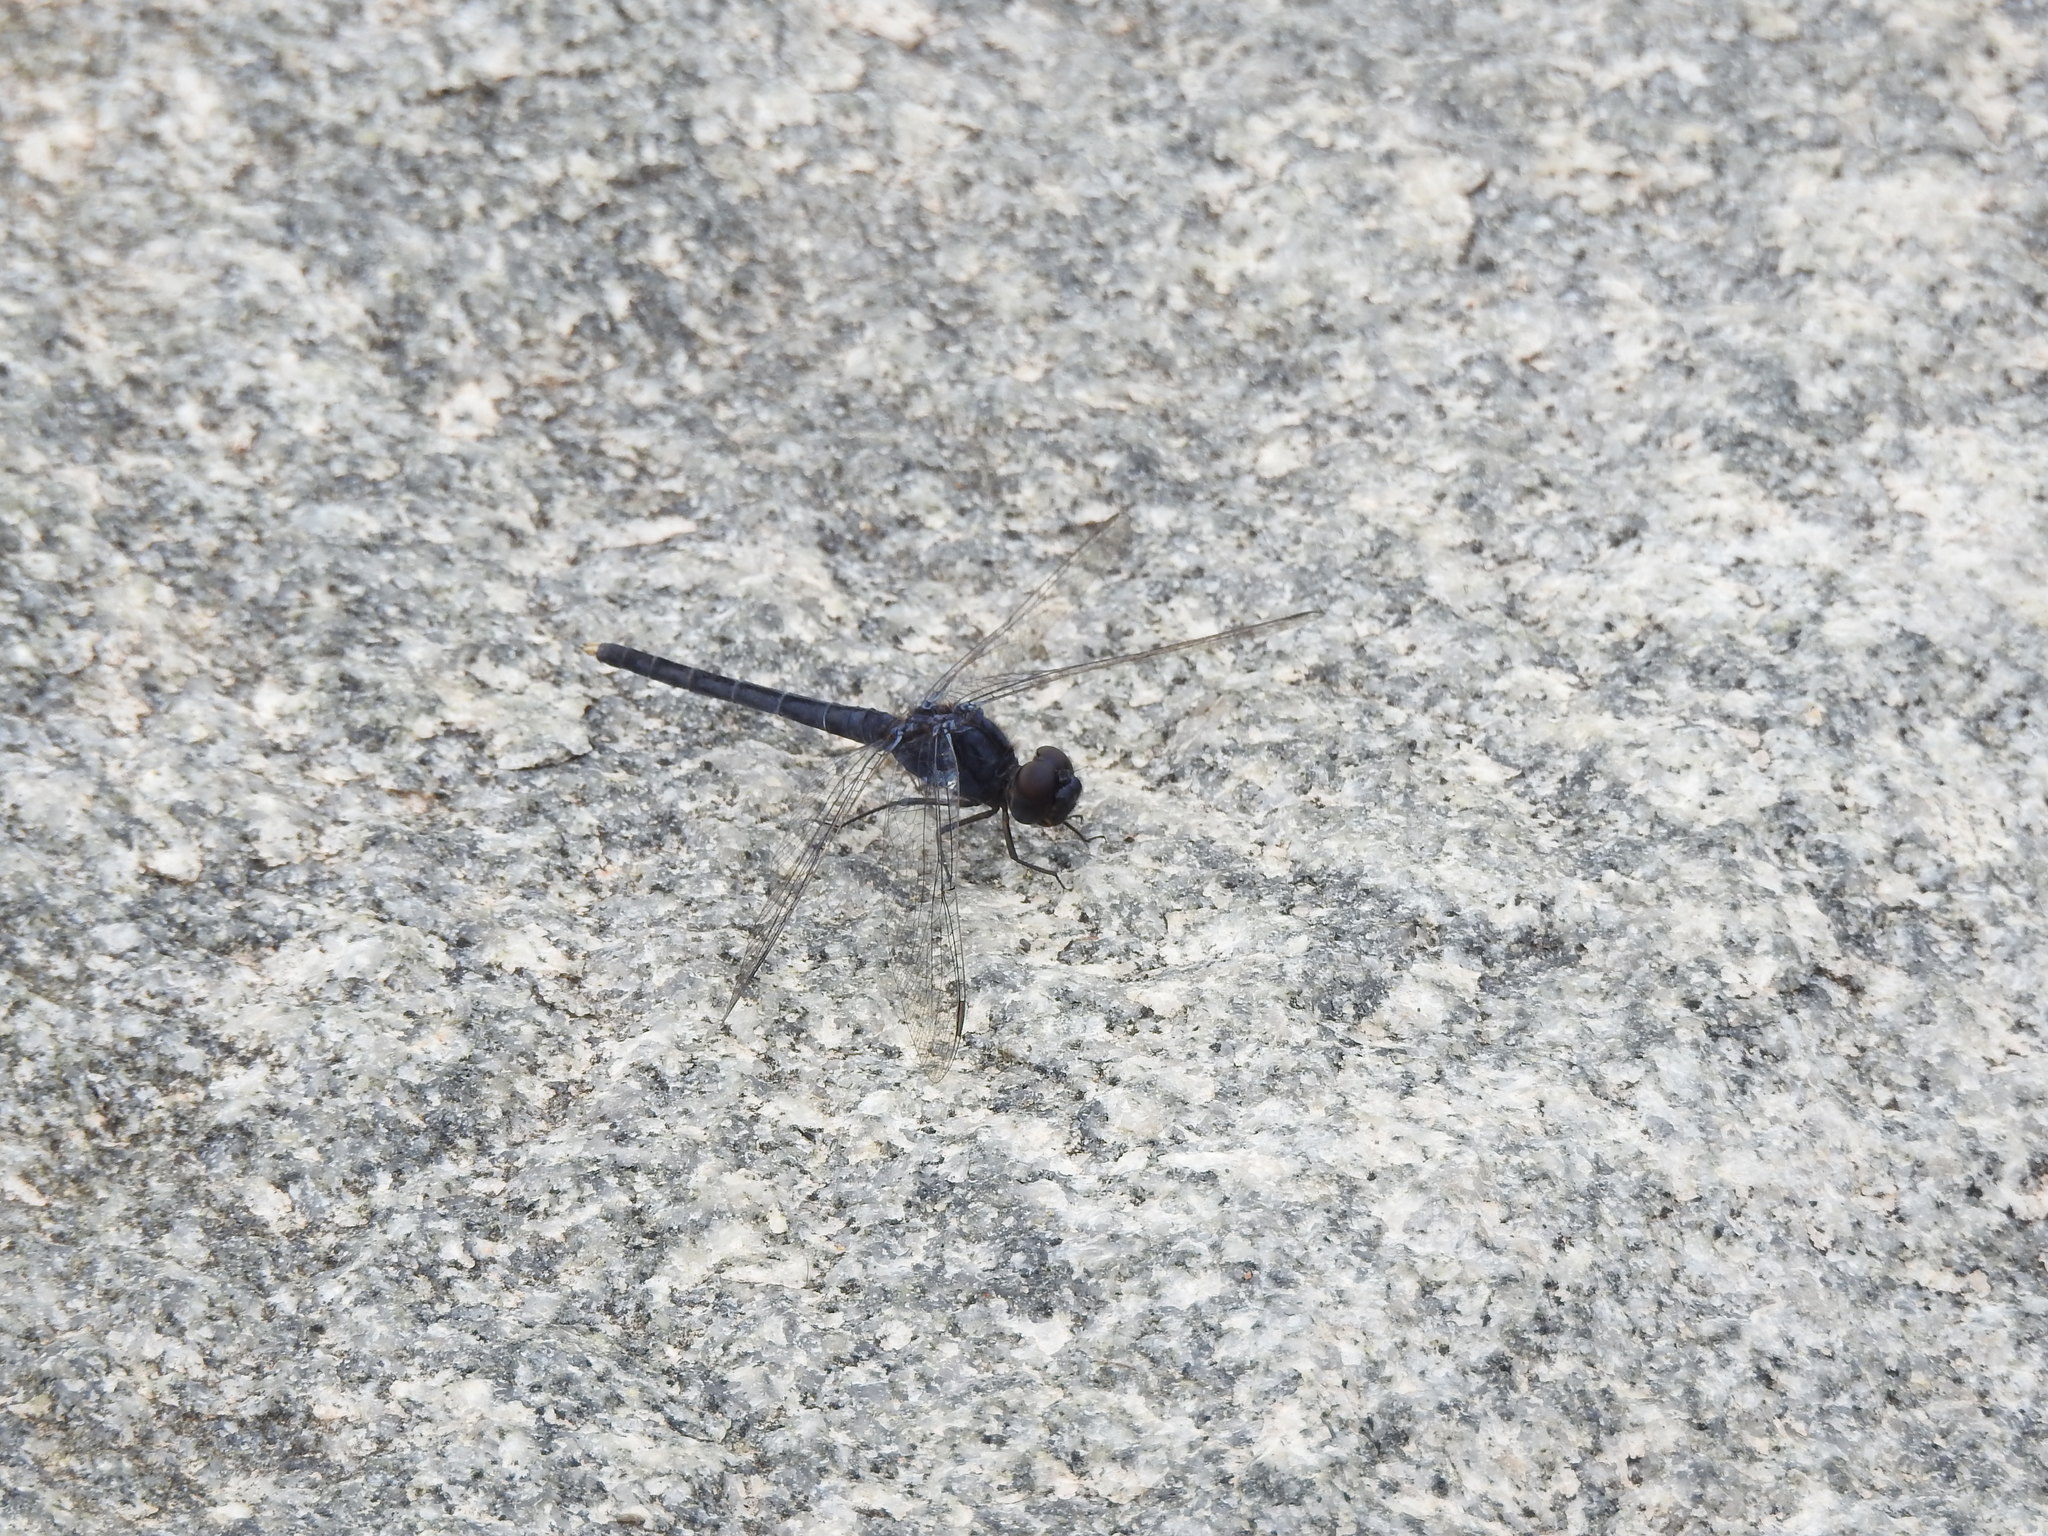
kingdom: Animalia
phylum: Arthropoda
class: Insecta
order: Odonata
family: Libellulidae
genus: Indothemis
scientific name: Indothemis carnatica
